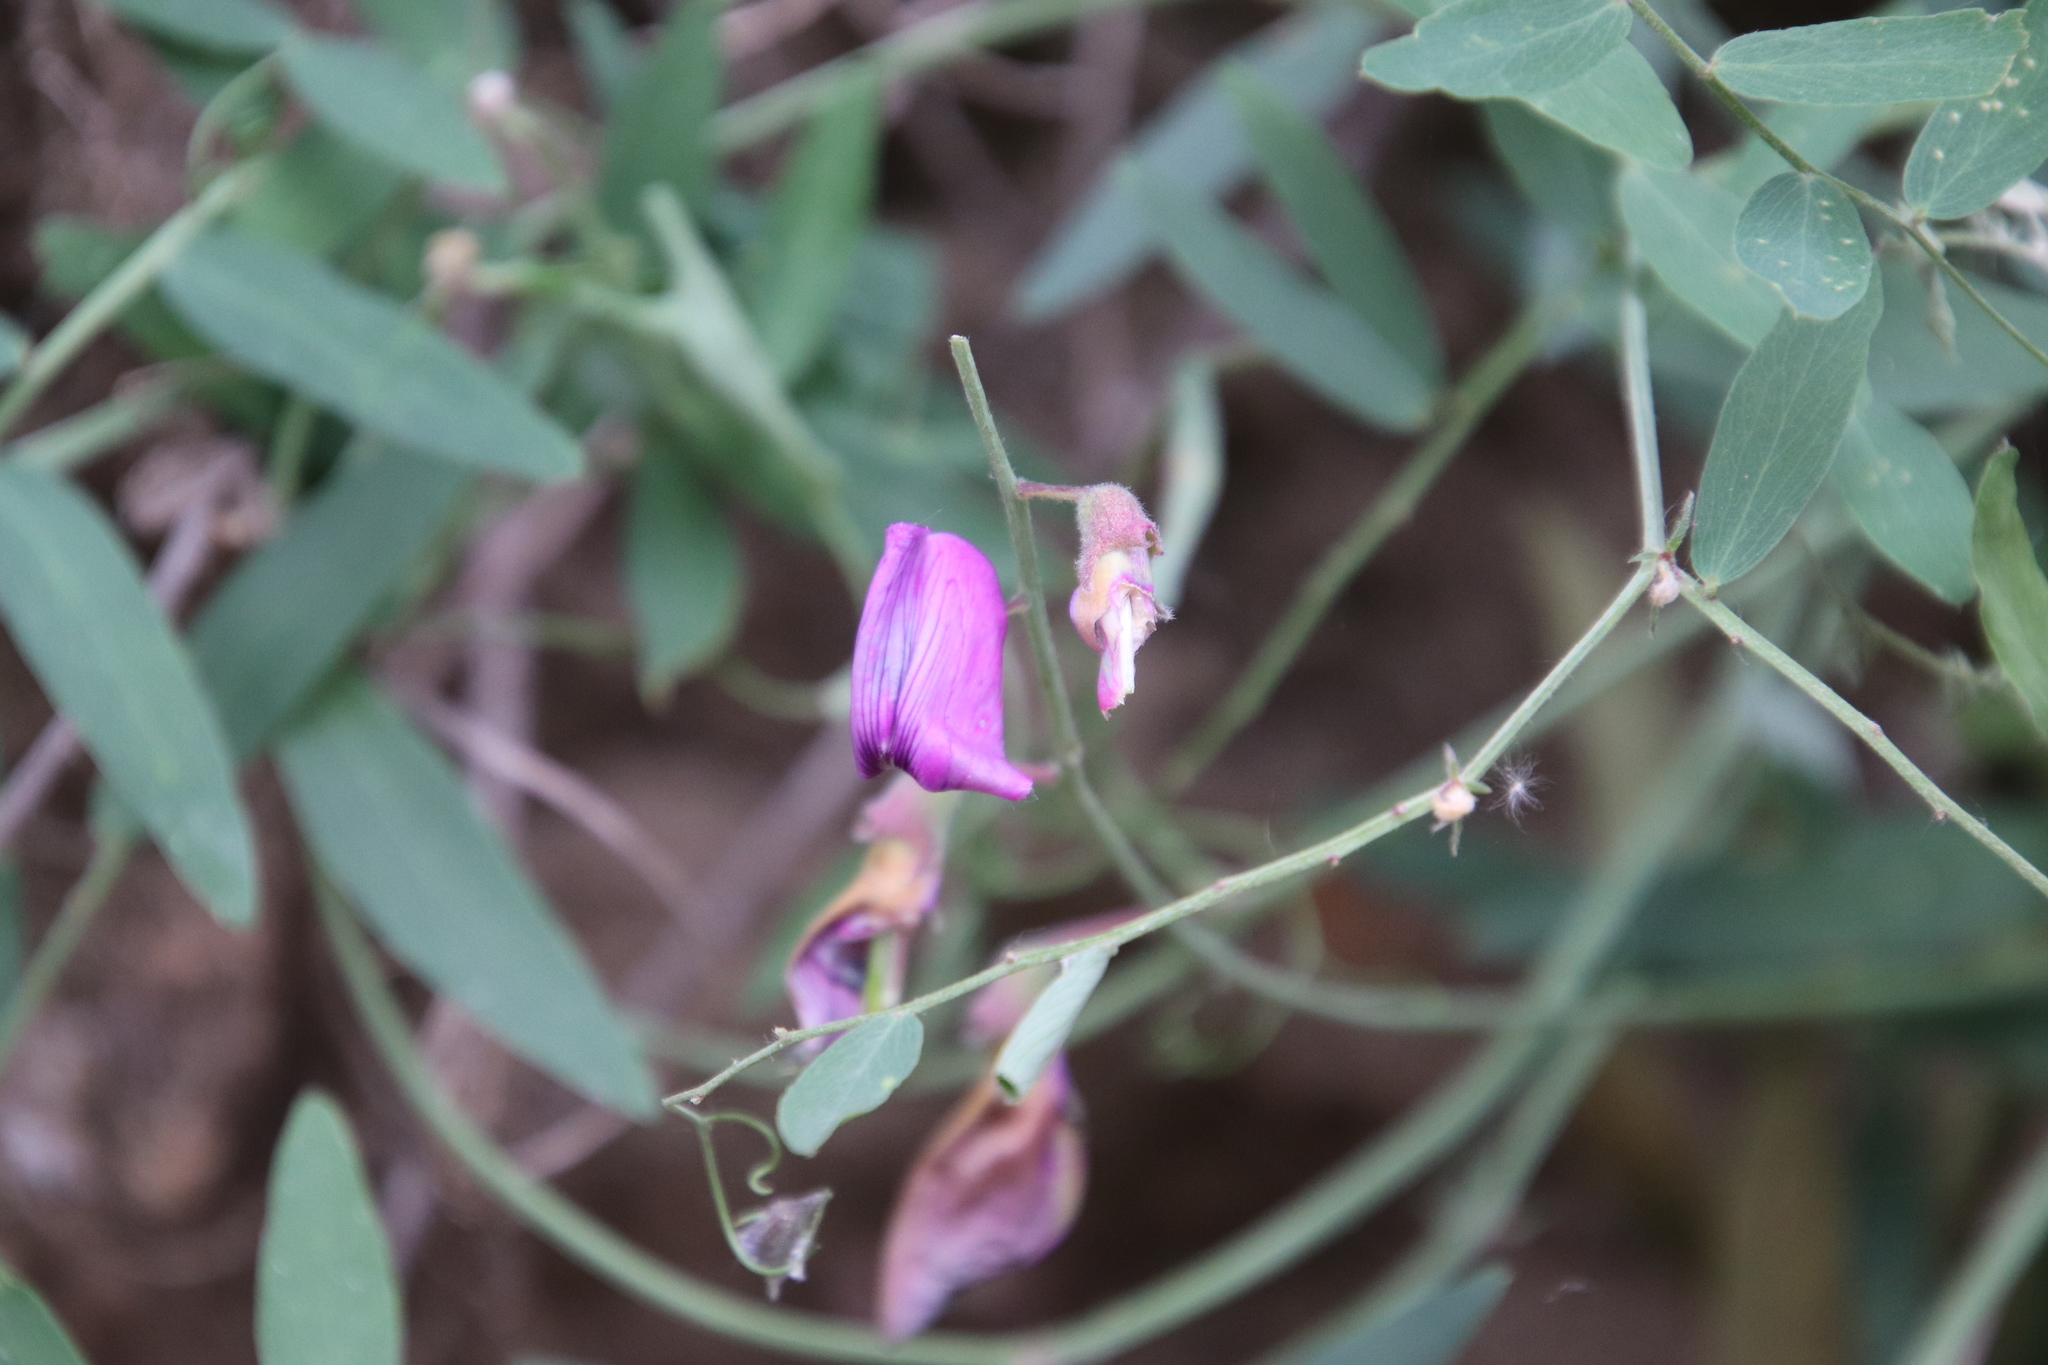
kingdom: Plantae
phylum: Tracheophyta
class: Magnoliopsida
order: Fabales
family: Fabaceae
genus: Lathyrus
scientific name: Lathyrus vestitus
